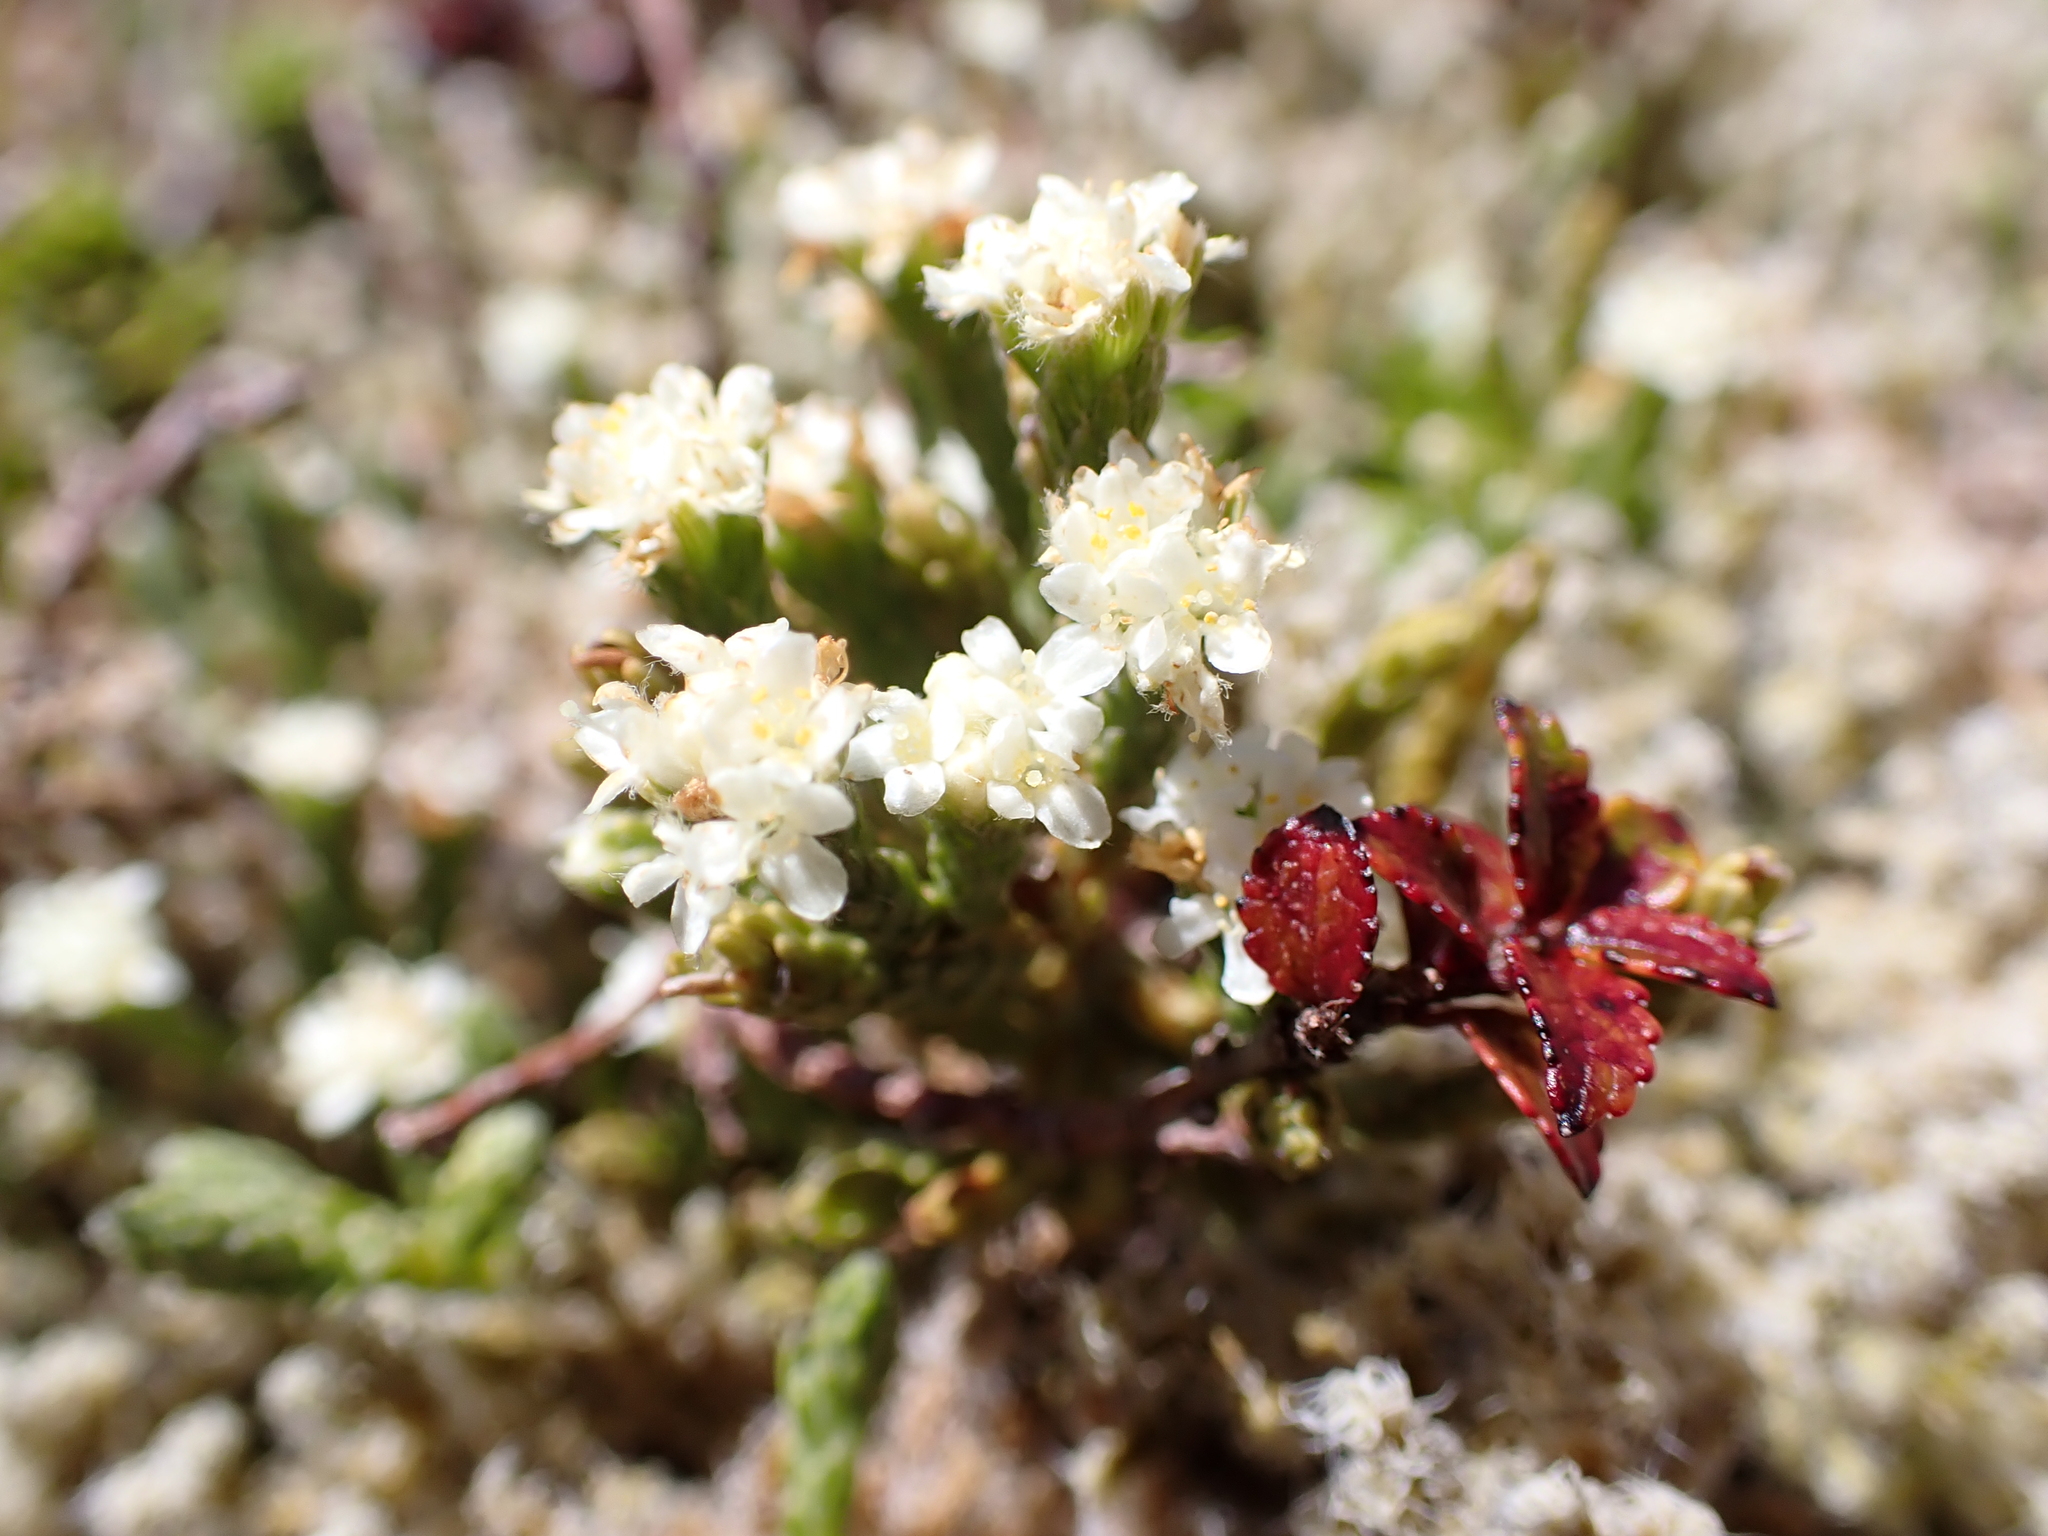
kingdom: Plantae
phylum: Tracheophyta
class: Magnoliopsida
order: Malvales
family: Thymelaeaceae
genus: Kelleria
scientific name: Kelleria dieffenbachii
